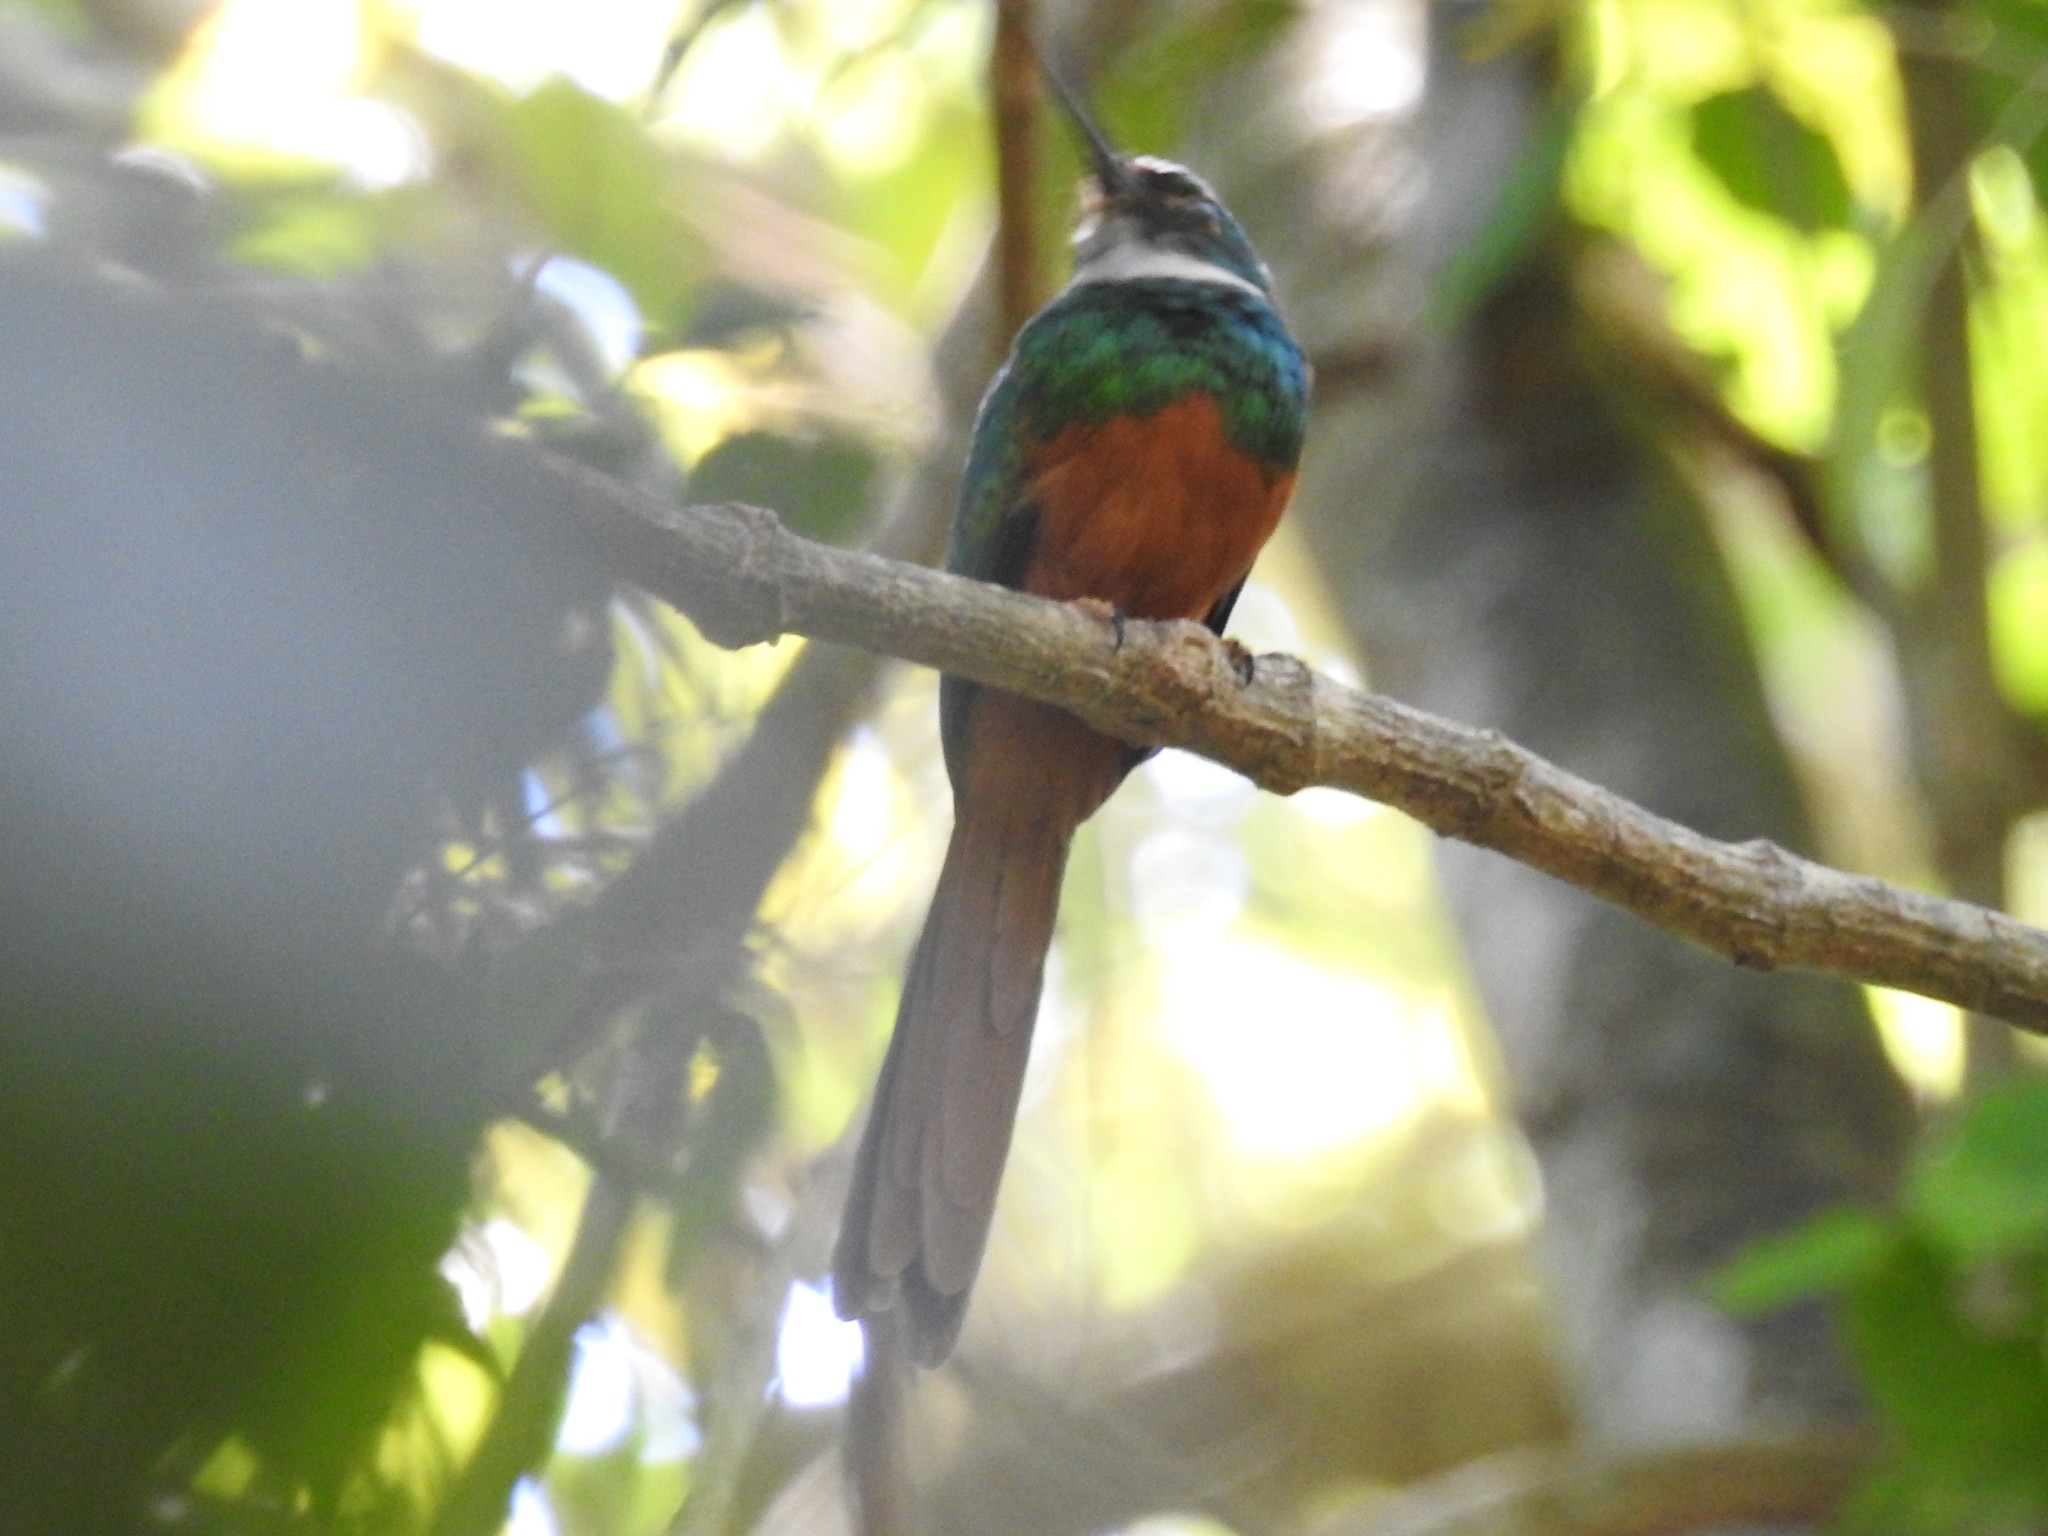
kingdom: Animalia
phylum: Chordata
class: Aves
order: Piciformes
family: Galbulidae
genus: Galbula
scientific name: Galbula ruficauda
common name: Rufous-tailed jacamar
